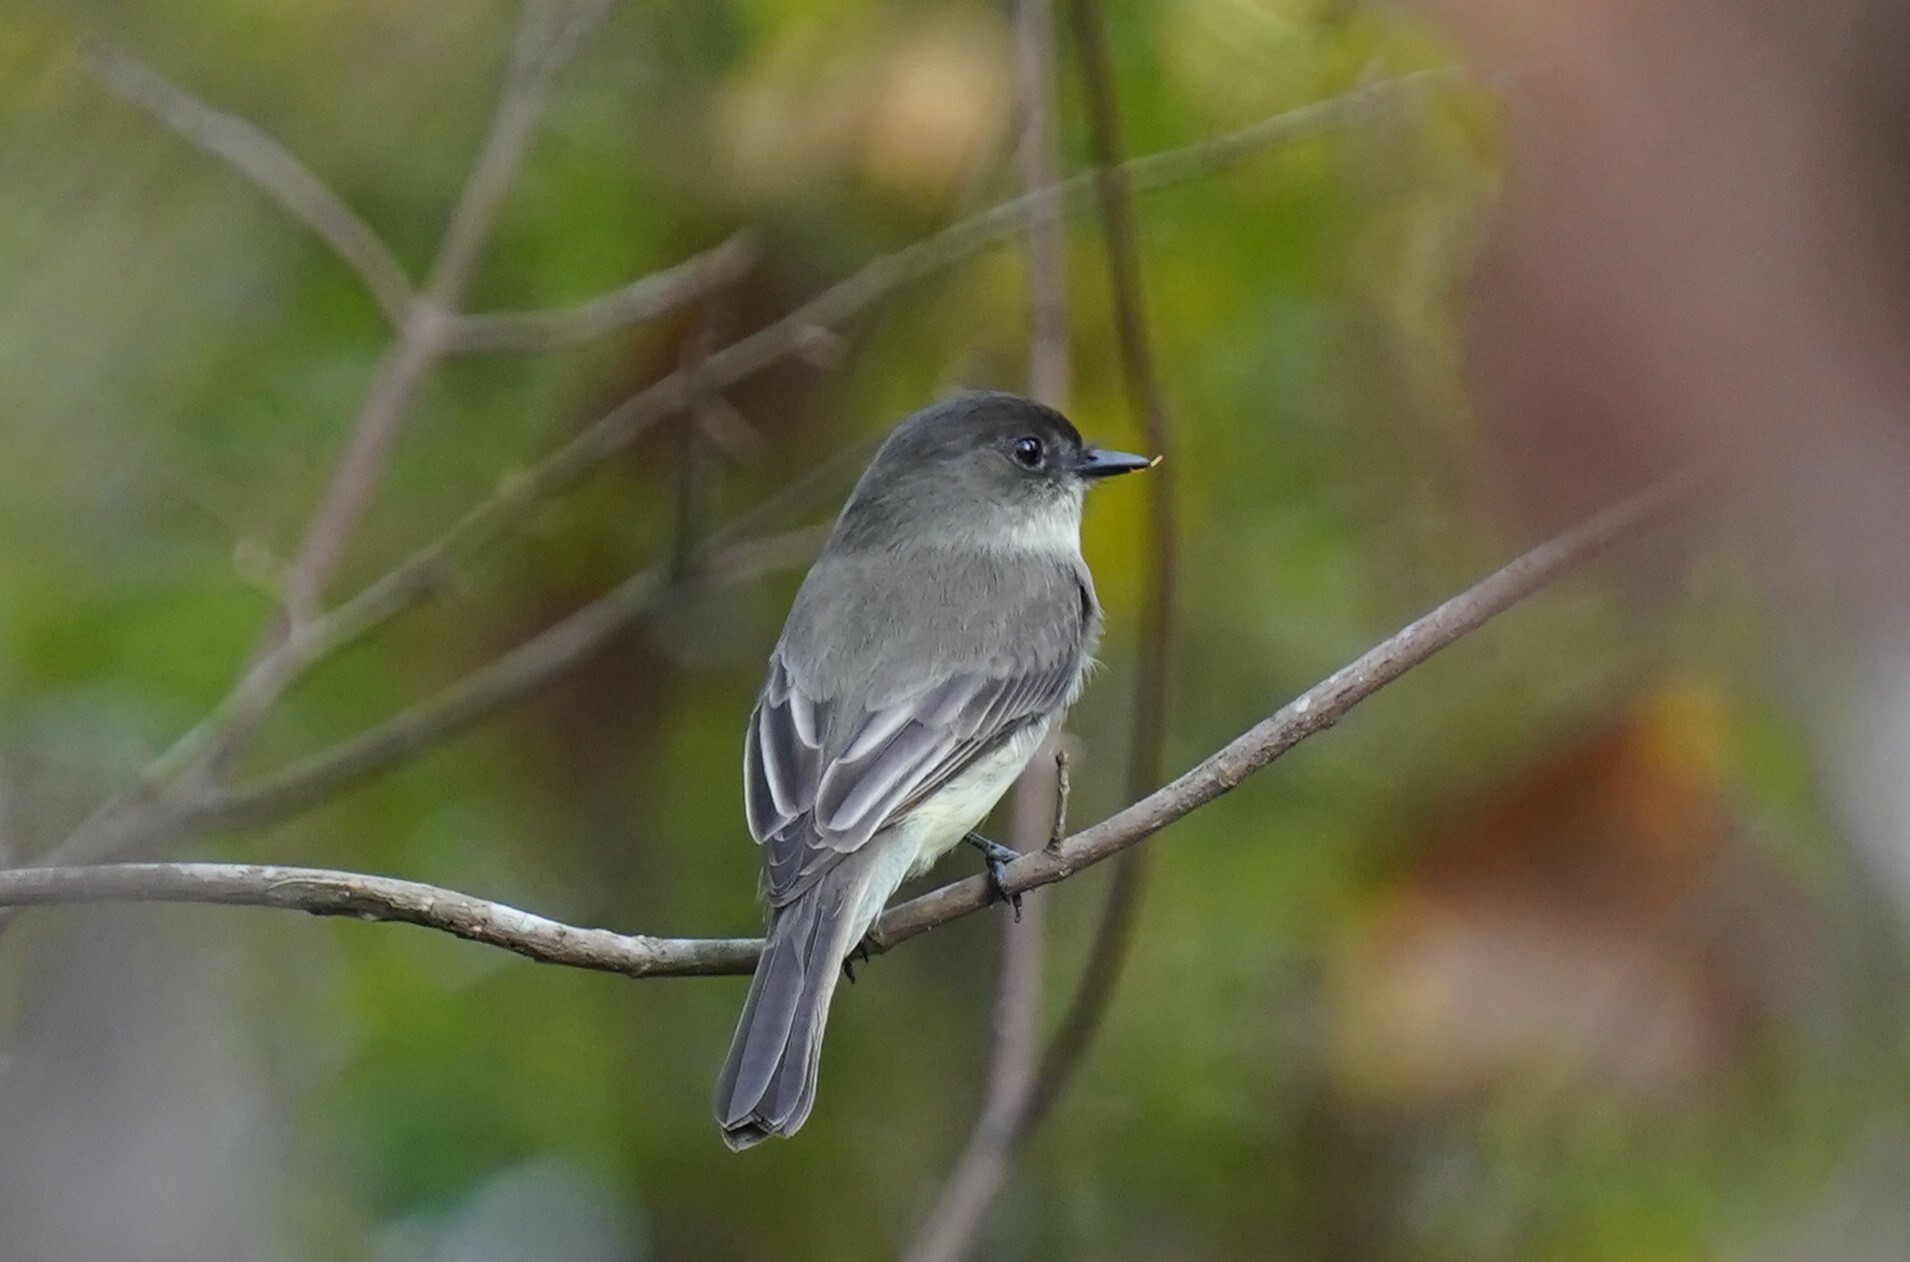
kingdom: Animalia
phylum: Chordata
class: Aves
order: Passeriformes
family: Tyrannidae
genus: Sayornis
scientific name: Sayornis phoebe
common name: Eastern phoebe
